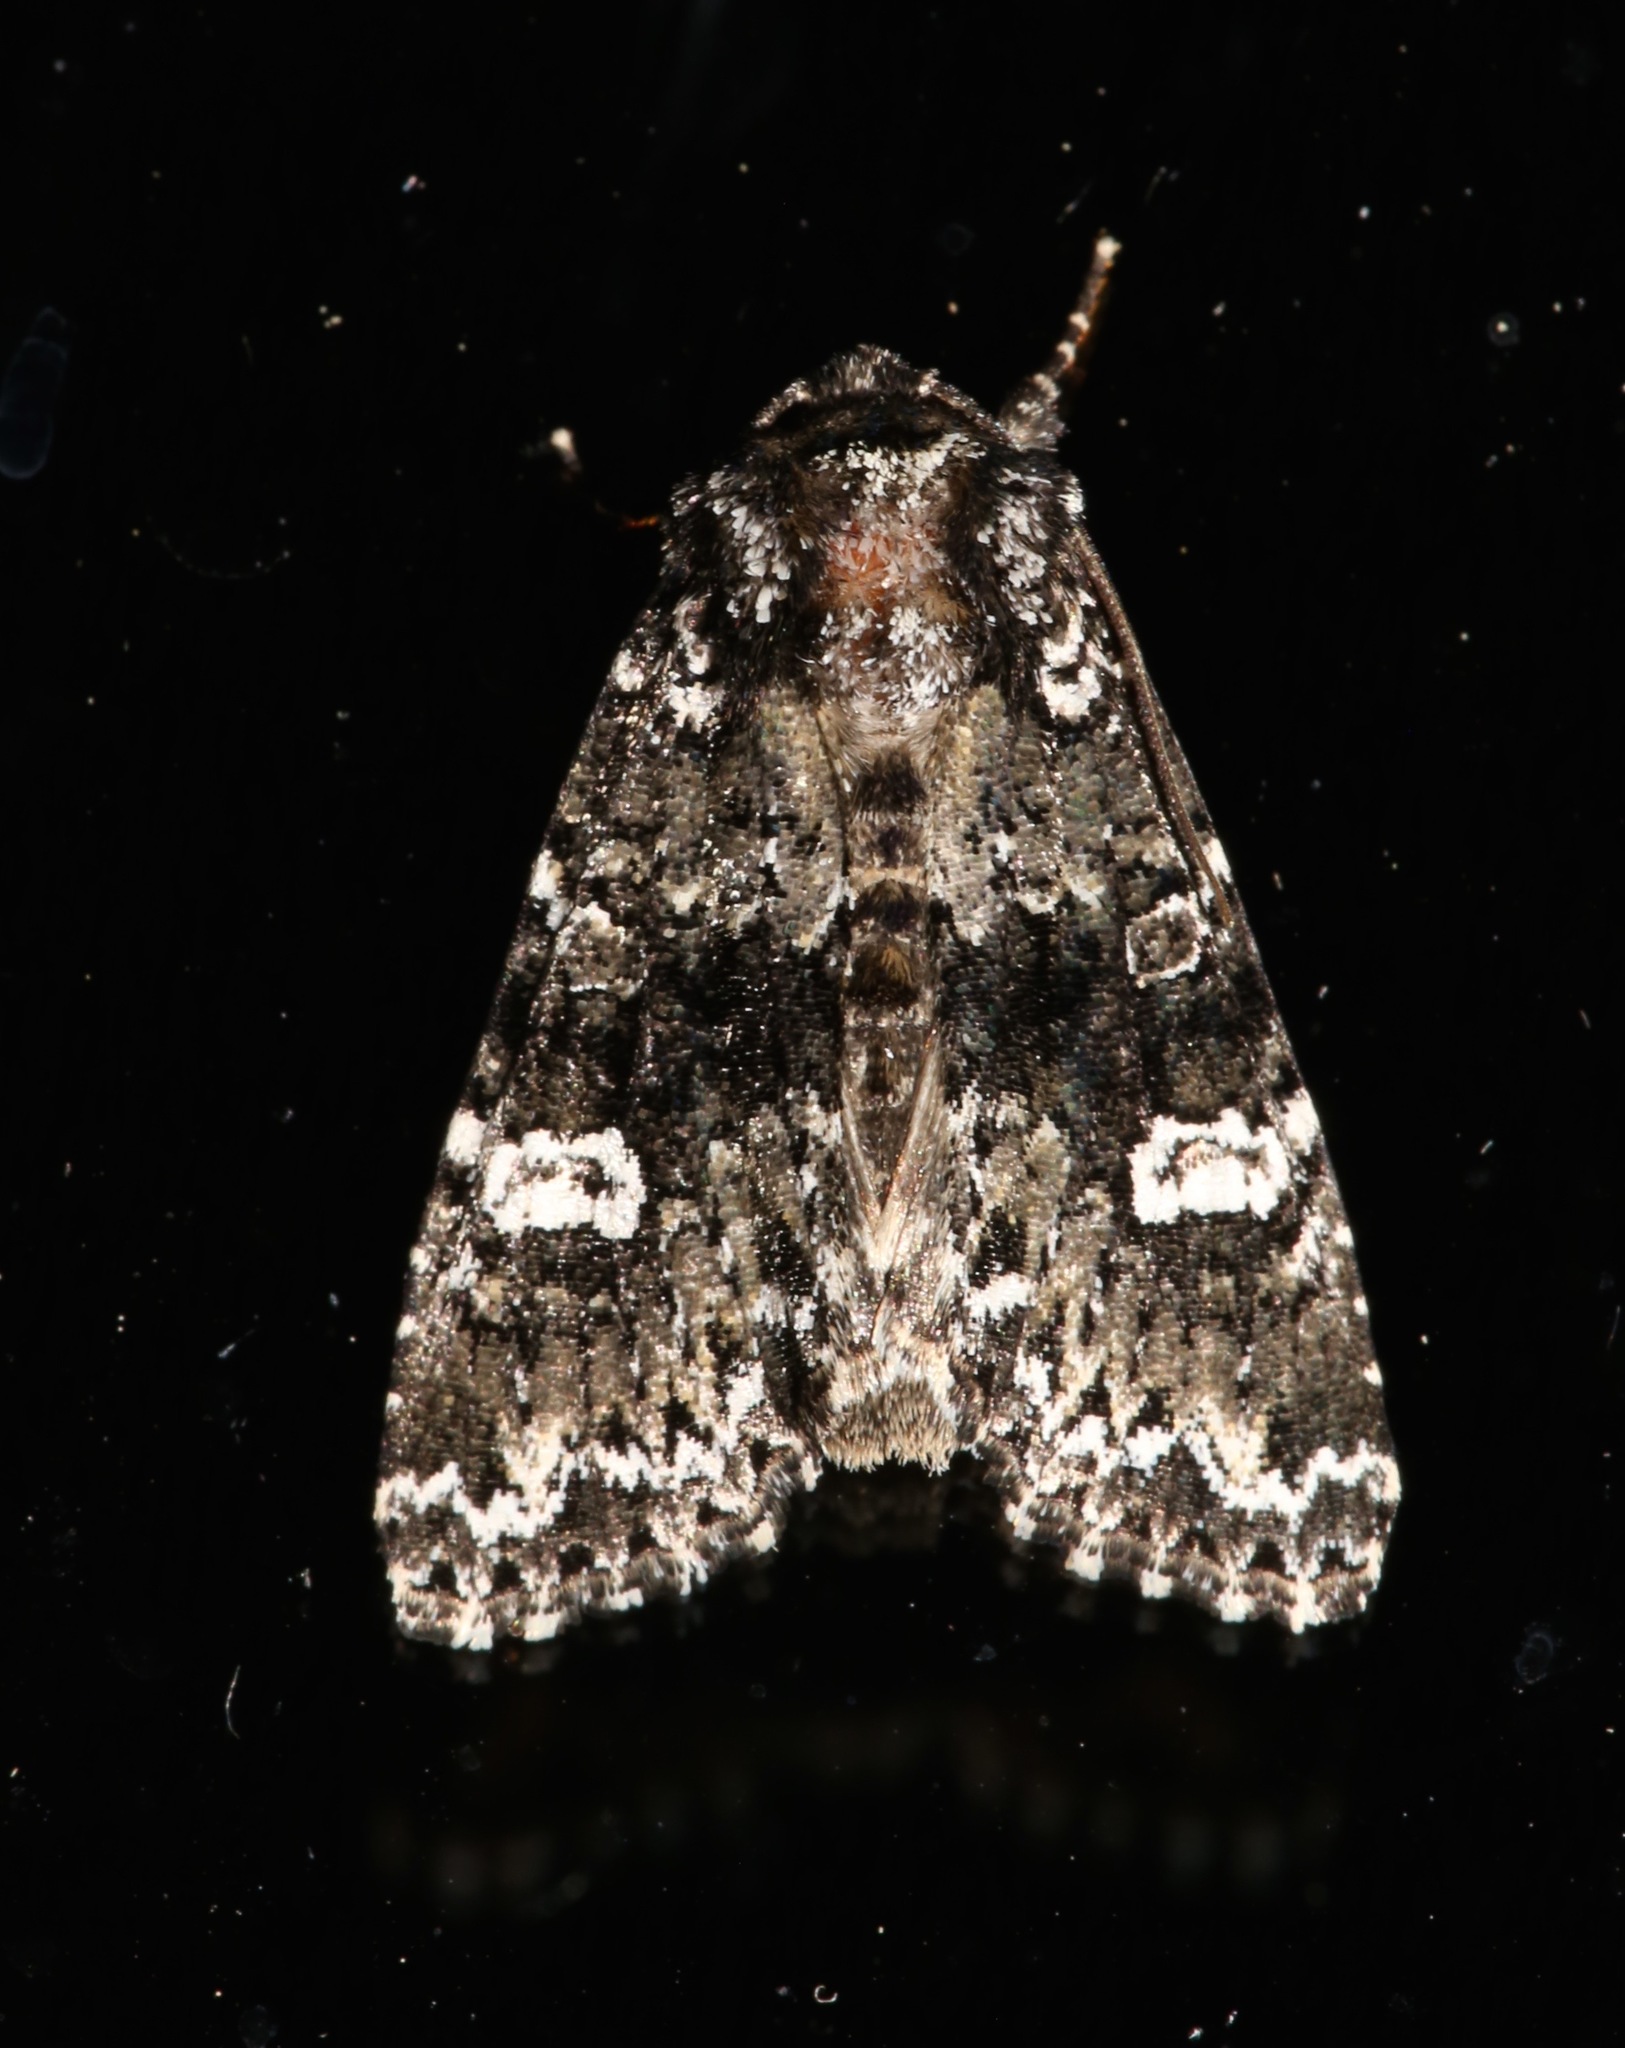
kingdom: Animalia
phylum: Arthropoda
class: Insecta
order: Lepidoptera
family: Noctuidae
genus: Melanchra
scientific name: Melanchra adjuncta
